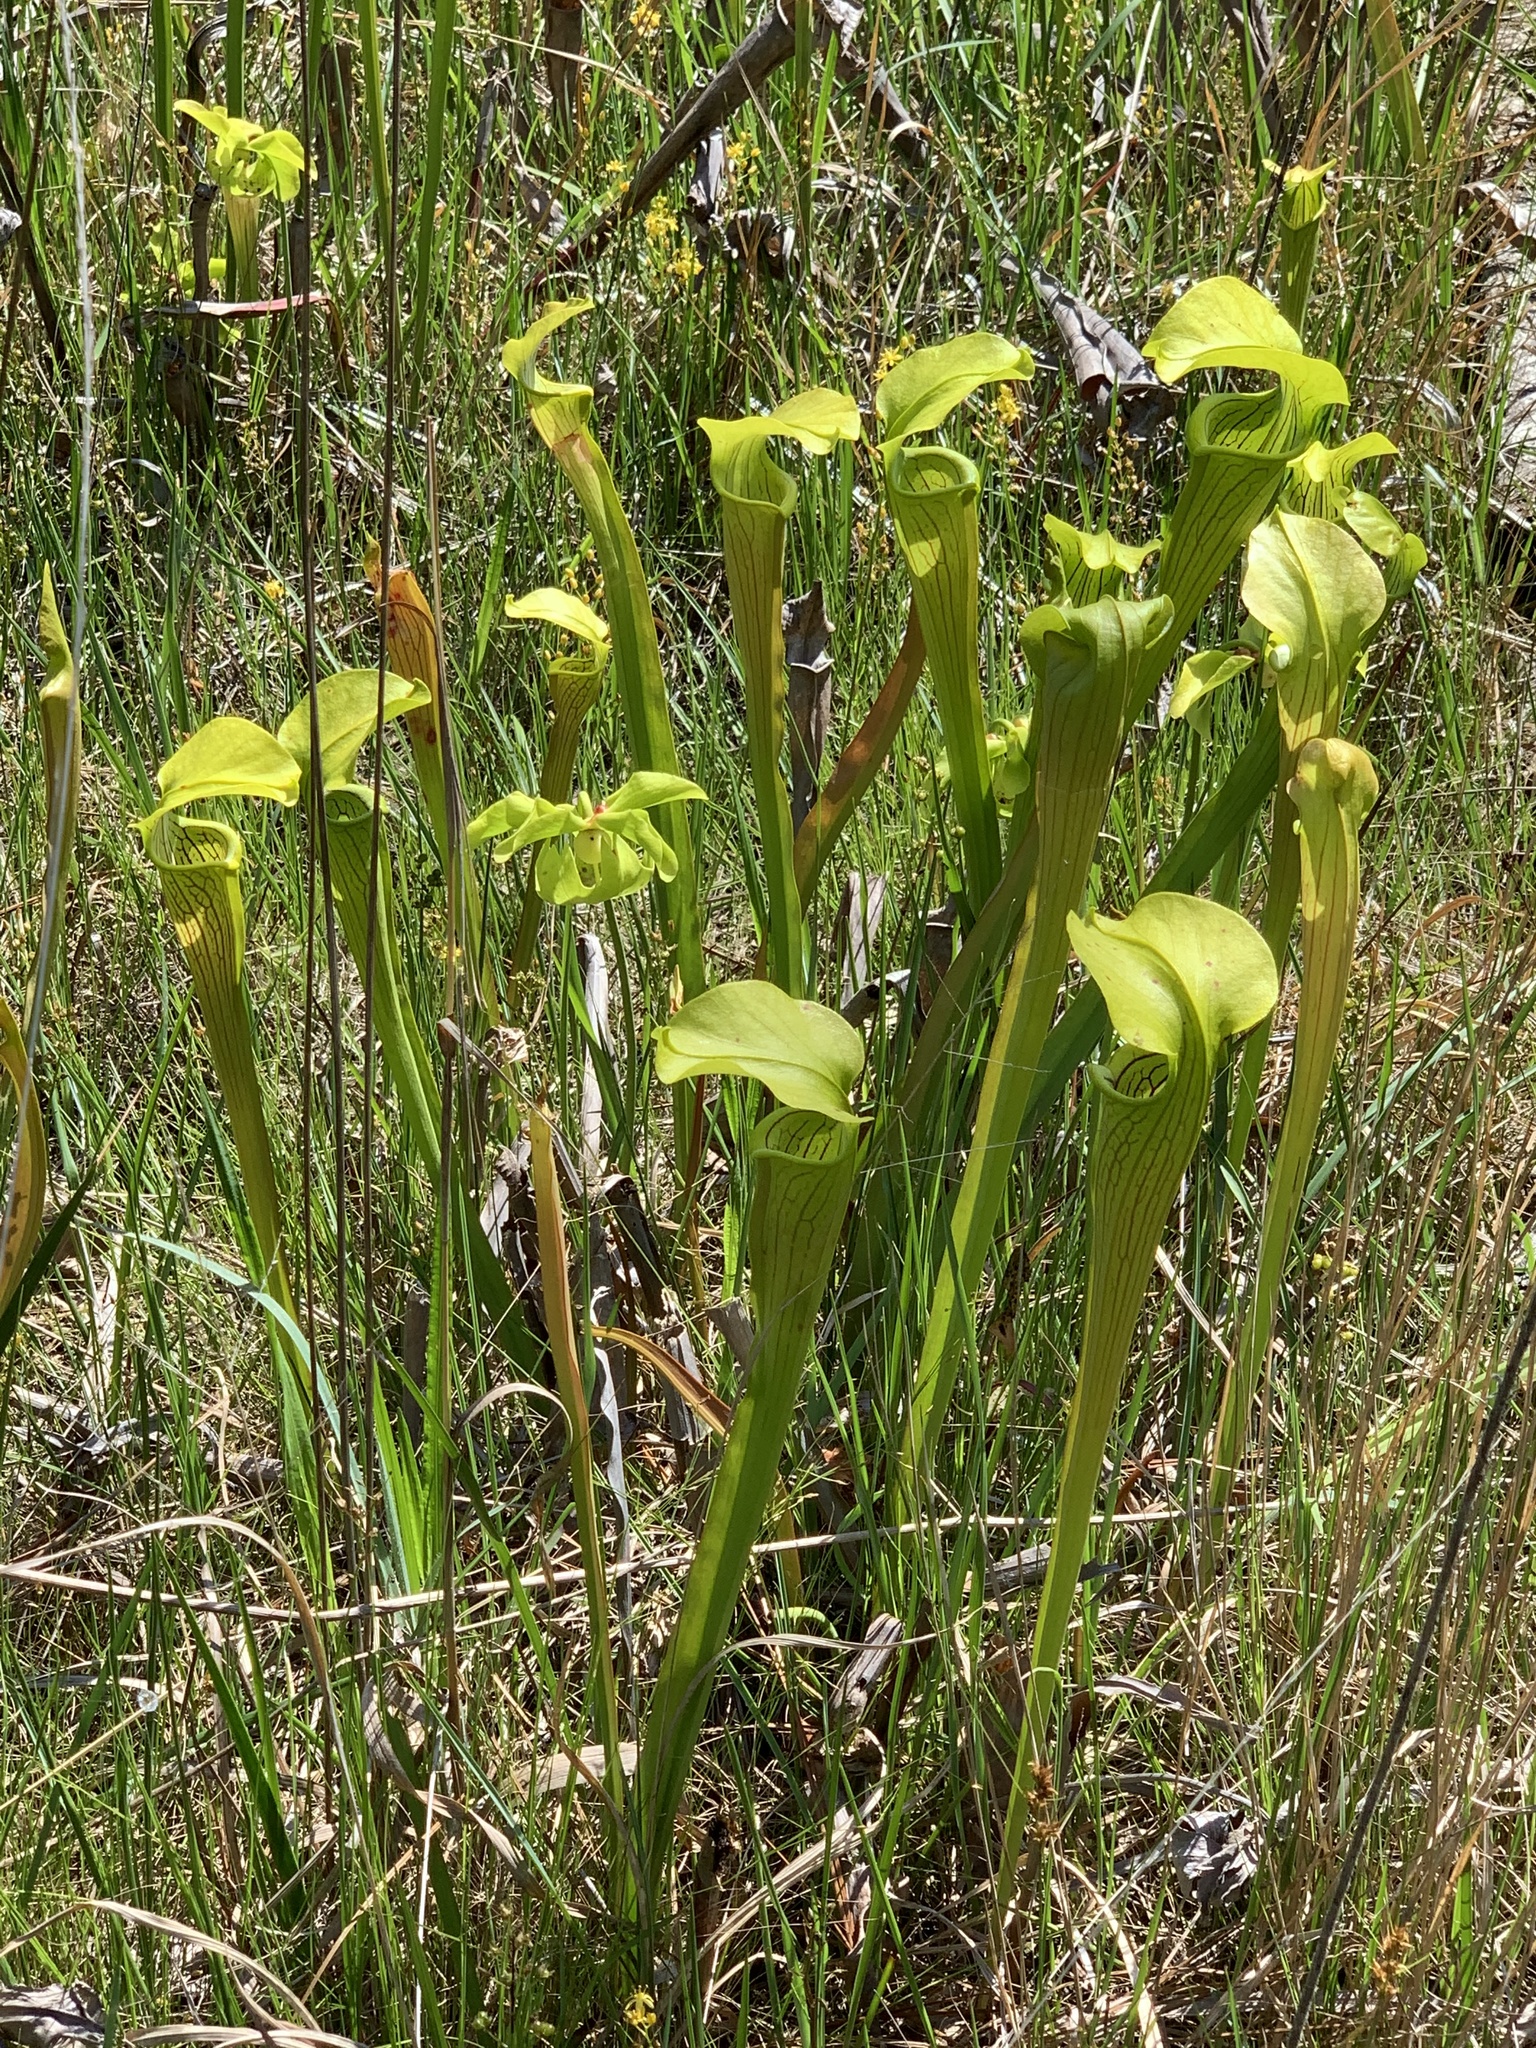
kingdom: Plantae
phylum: Tracheophyta
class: Magnoliopsida
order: Ericales
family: Sarraceniaceae
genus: Sarracenia
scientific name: Sarracenia alata
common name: Yellow trumpets
